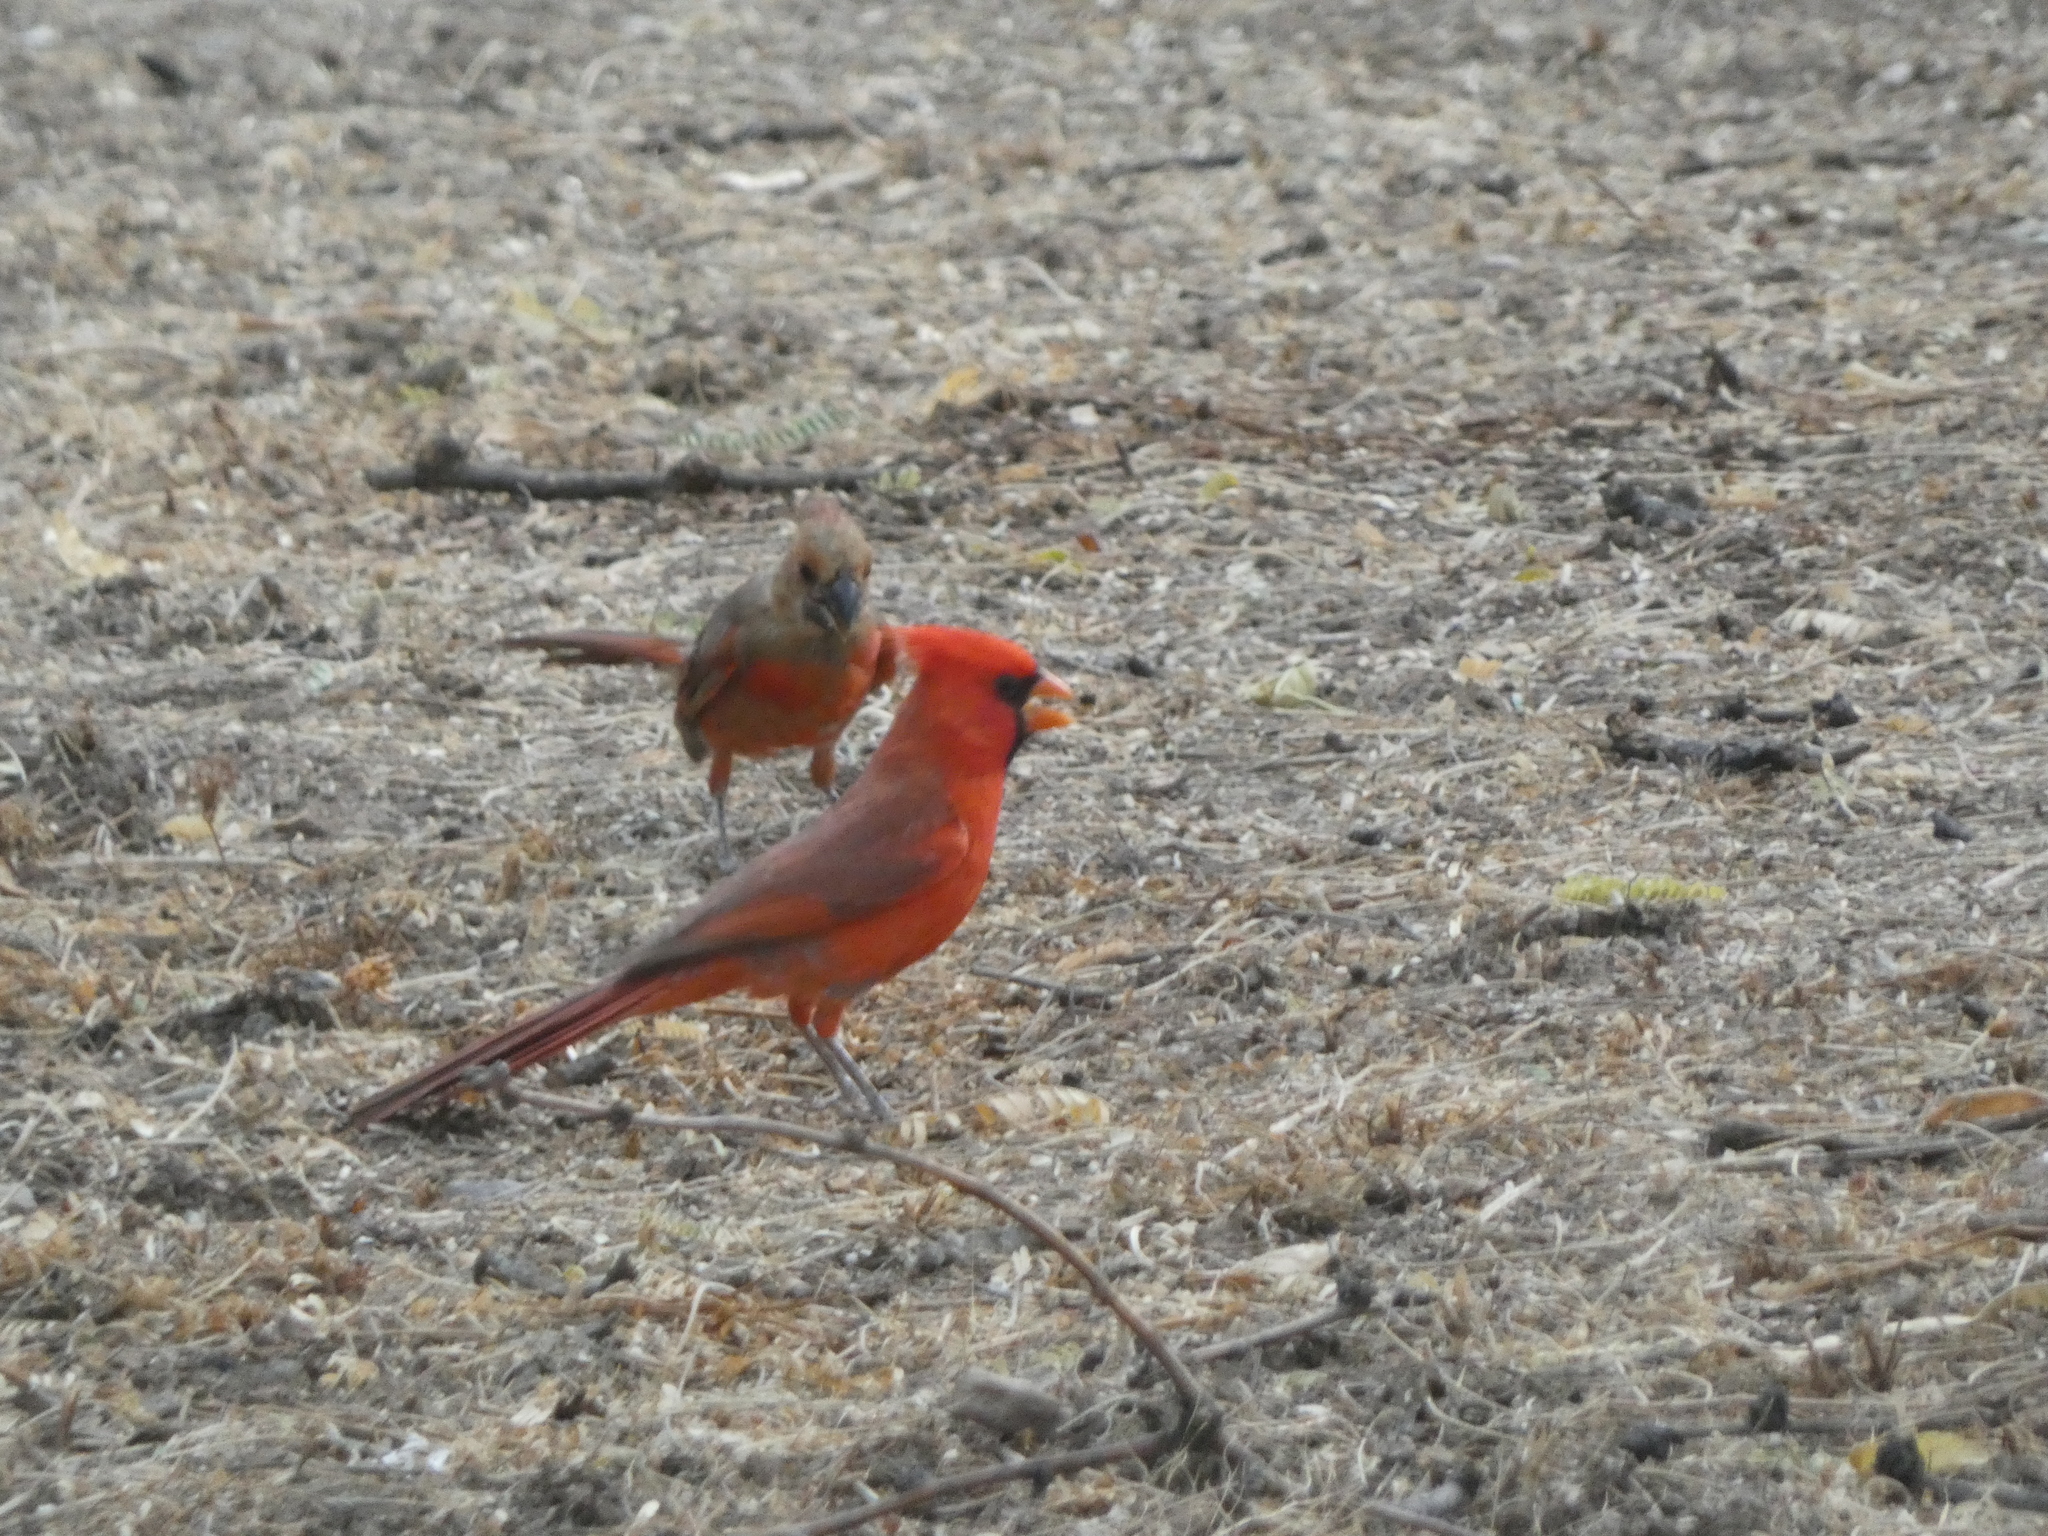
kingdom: Animalia
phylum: Chordata
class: Aves
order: Passeriformes
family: Cardinalidae
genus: Cardinalis
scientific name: Cardinalis cardinalis
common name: Northern cardinal
